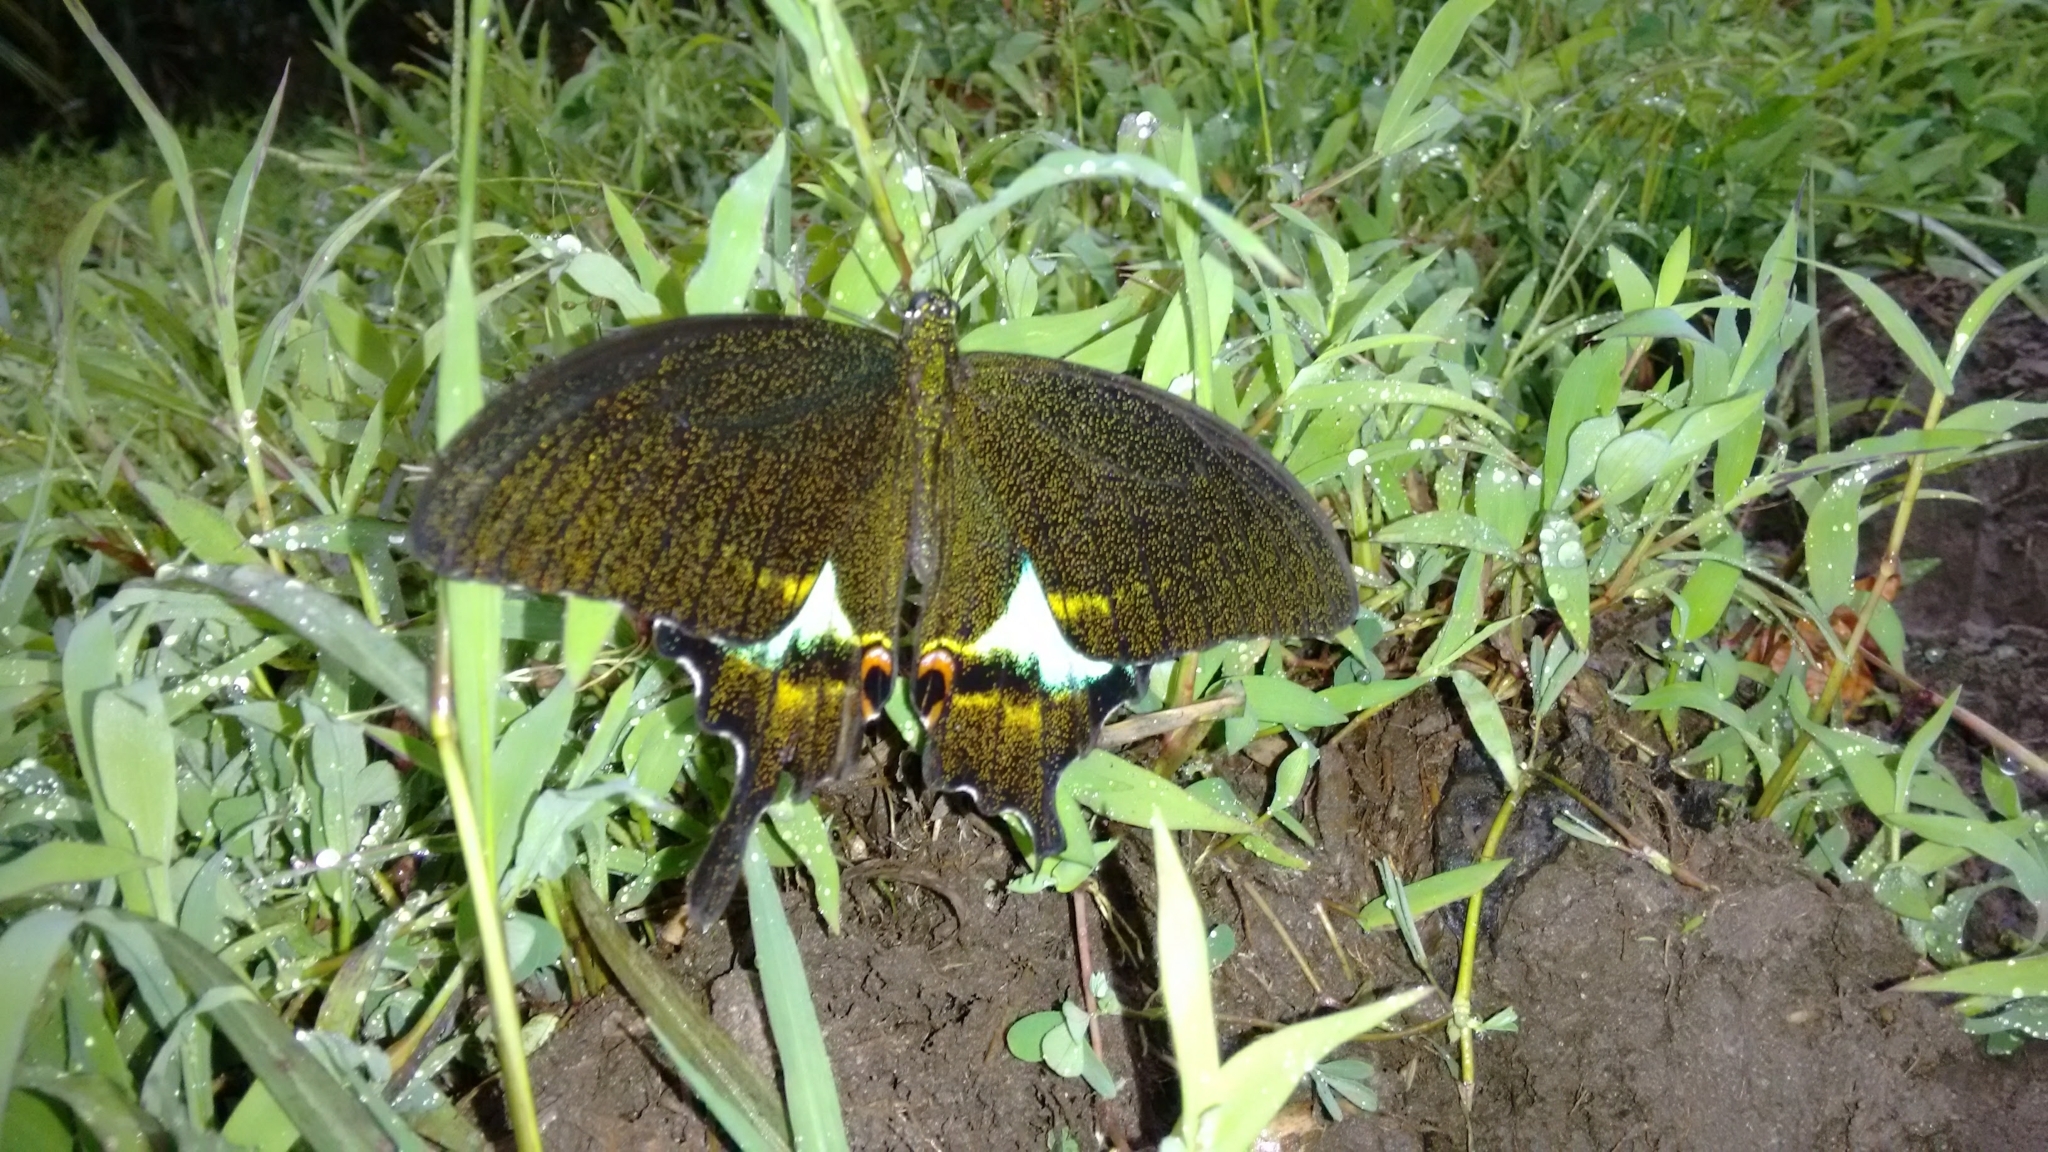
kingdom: Animalia
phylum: Arthropoda
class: Insecta
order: Lepidoptera
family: Papilionidae
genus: Papilio
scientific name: Papilio paris
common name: Paris peacock
